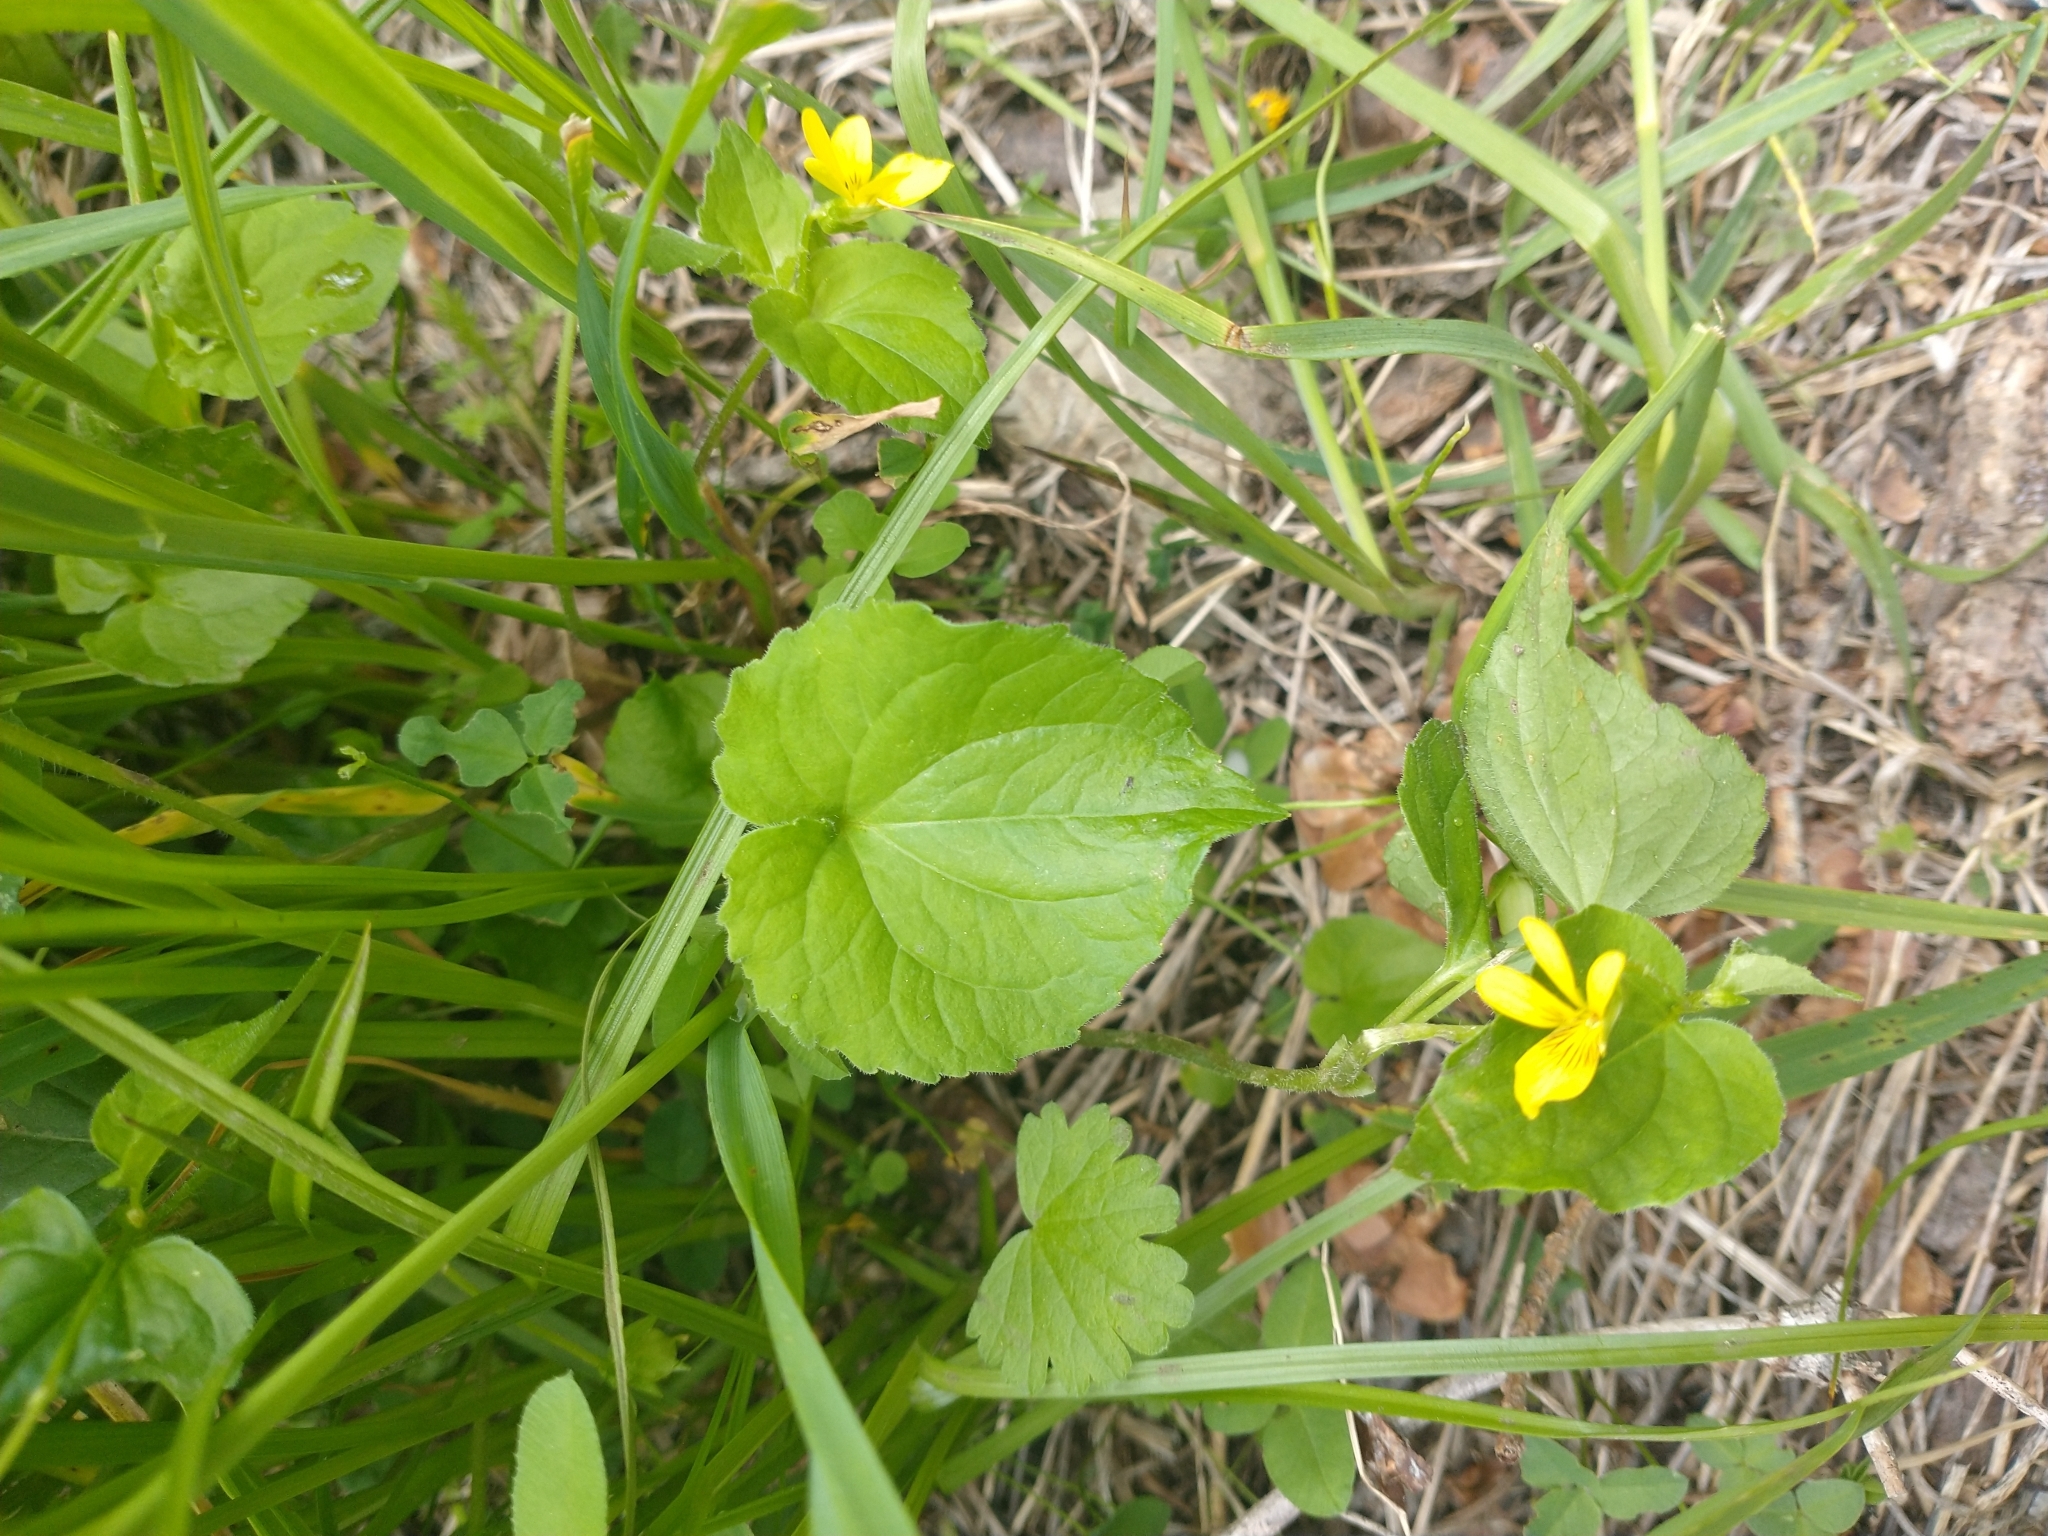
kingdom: Plantae
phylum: Tracheophyta
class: Magnoliopsida
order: Malpighiales
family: Violaceae
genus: Viola
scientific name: Viola glabella
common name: Stream violet
